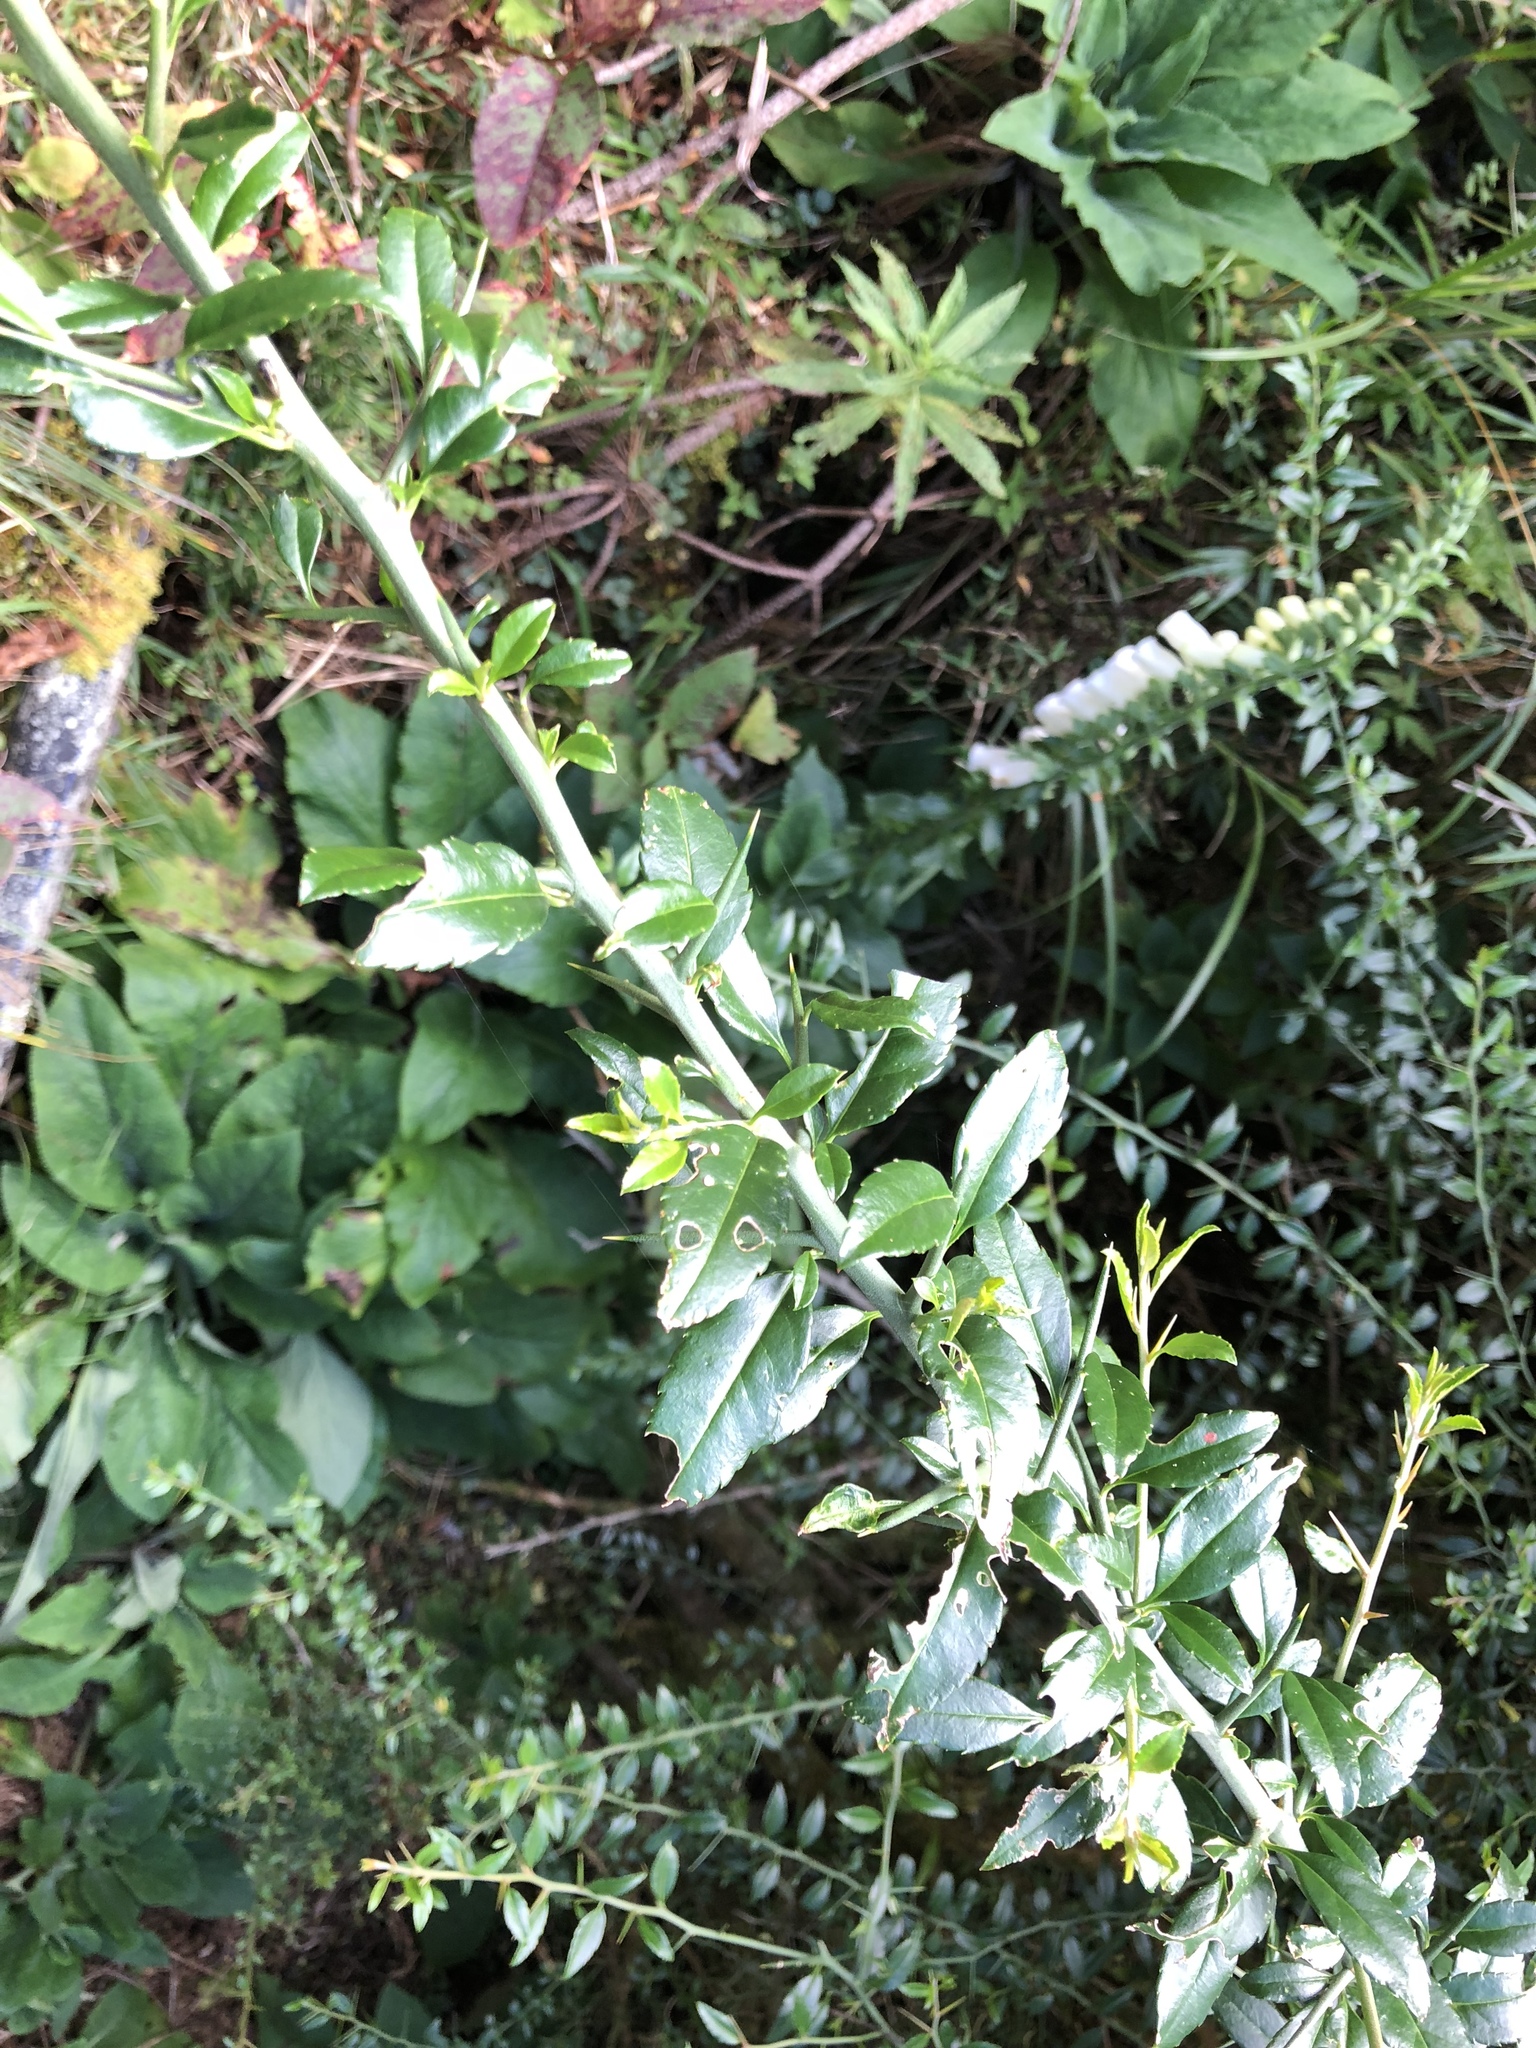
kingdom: Plantae
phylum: Tracheophyta
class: Magnoliopsida
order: Rosales
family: Rosaceae
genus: Prinsepia
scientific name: Prinsepia scandens
